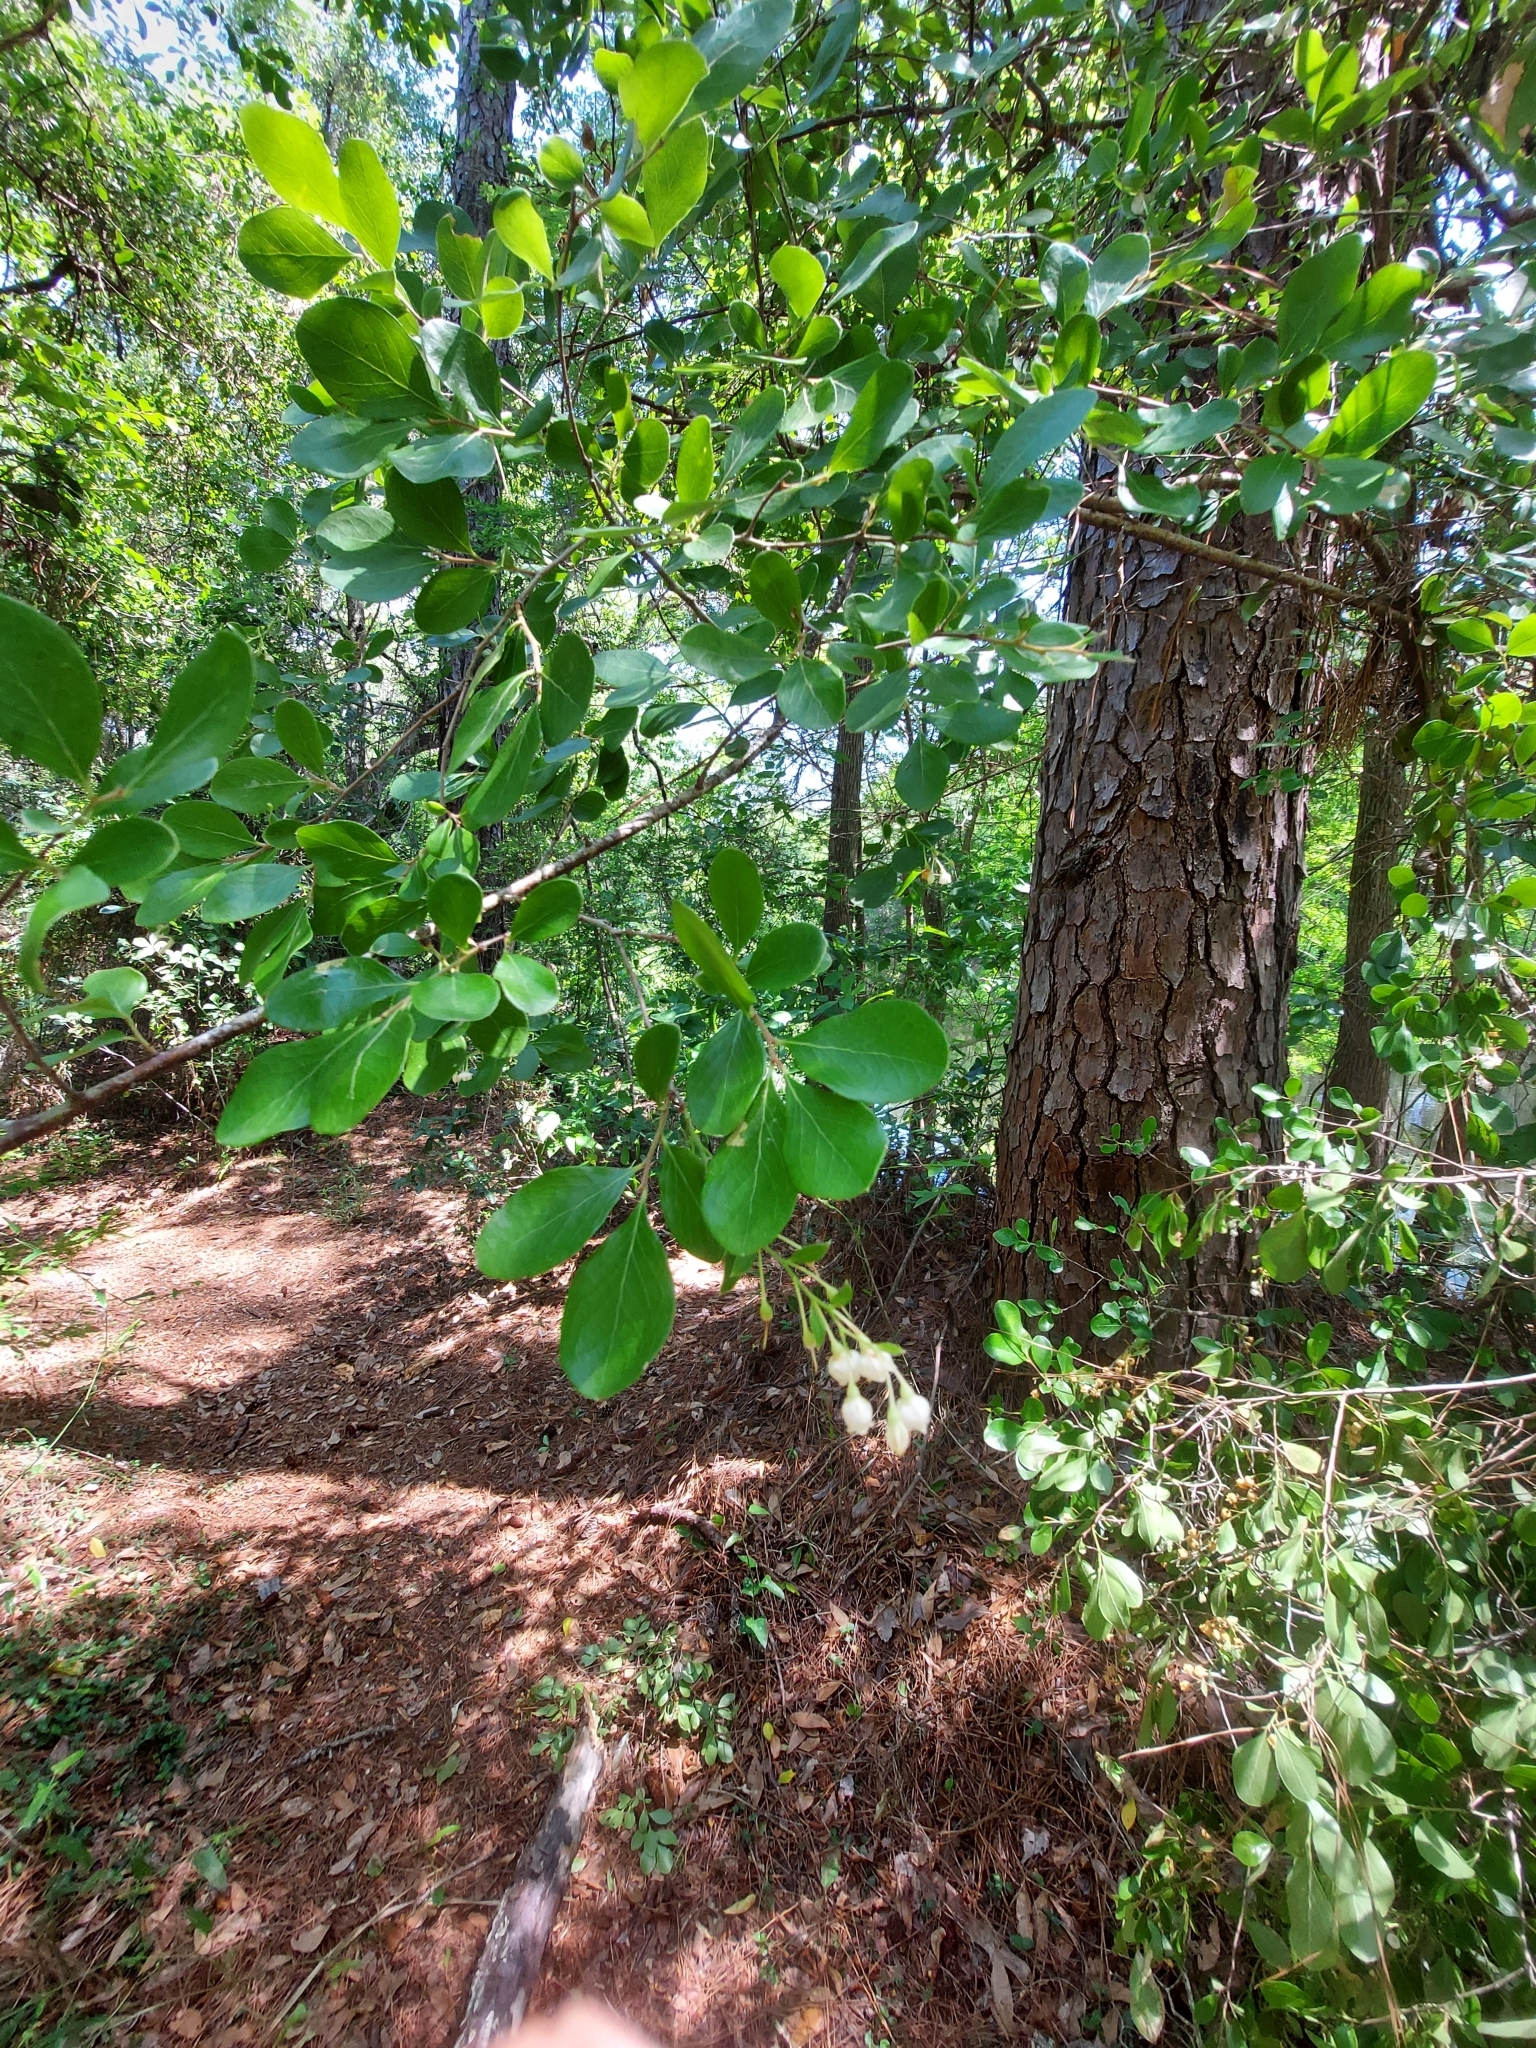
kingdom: Plantae
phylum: Tracheophyta
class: Magnoliopsida
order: Ericales
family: Ericaceae
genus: Vaccinium
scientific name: Vaccinium arboreum
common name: Farkleberry
